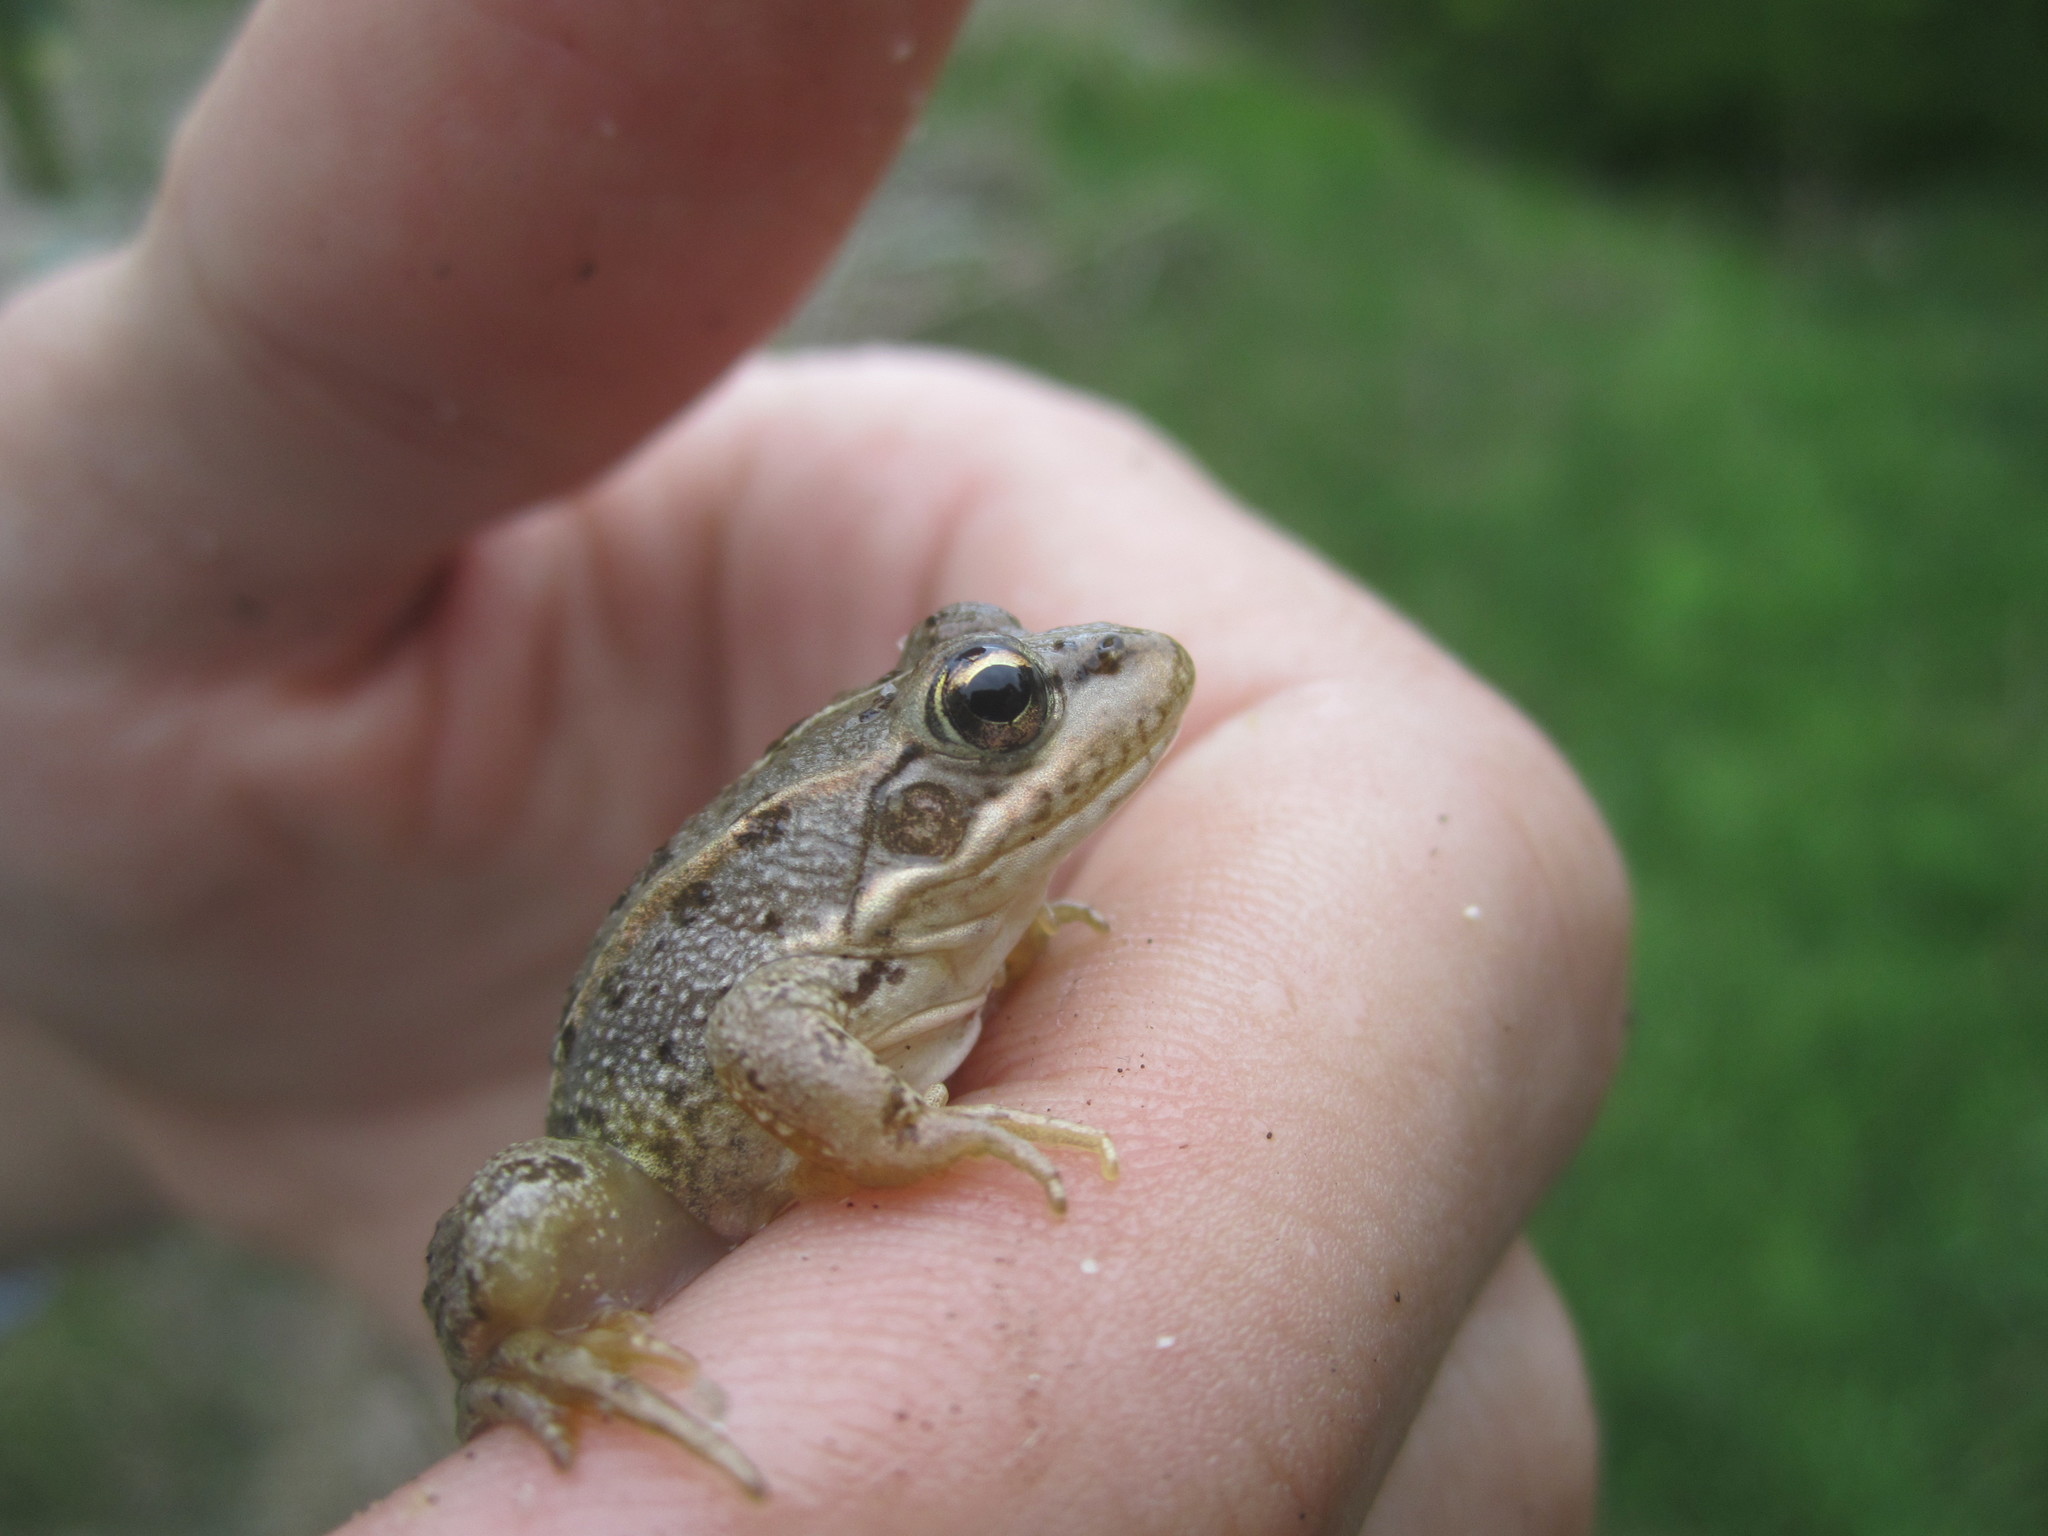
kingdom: Animalia
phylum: Chordata
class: Amphibia
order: Anura
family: Ranidae
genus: Pelophylax
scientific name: Pelophylax perezi
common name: Perez's frog
